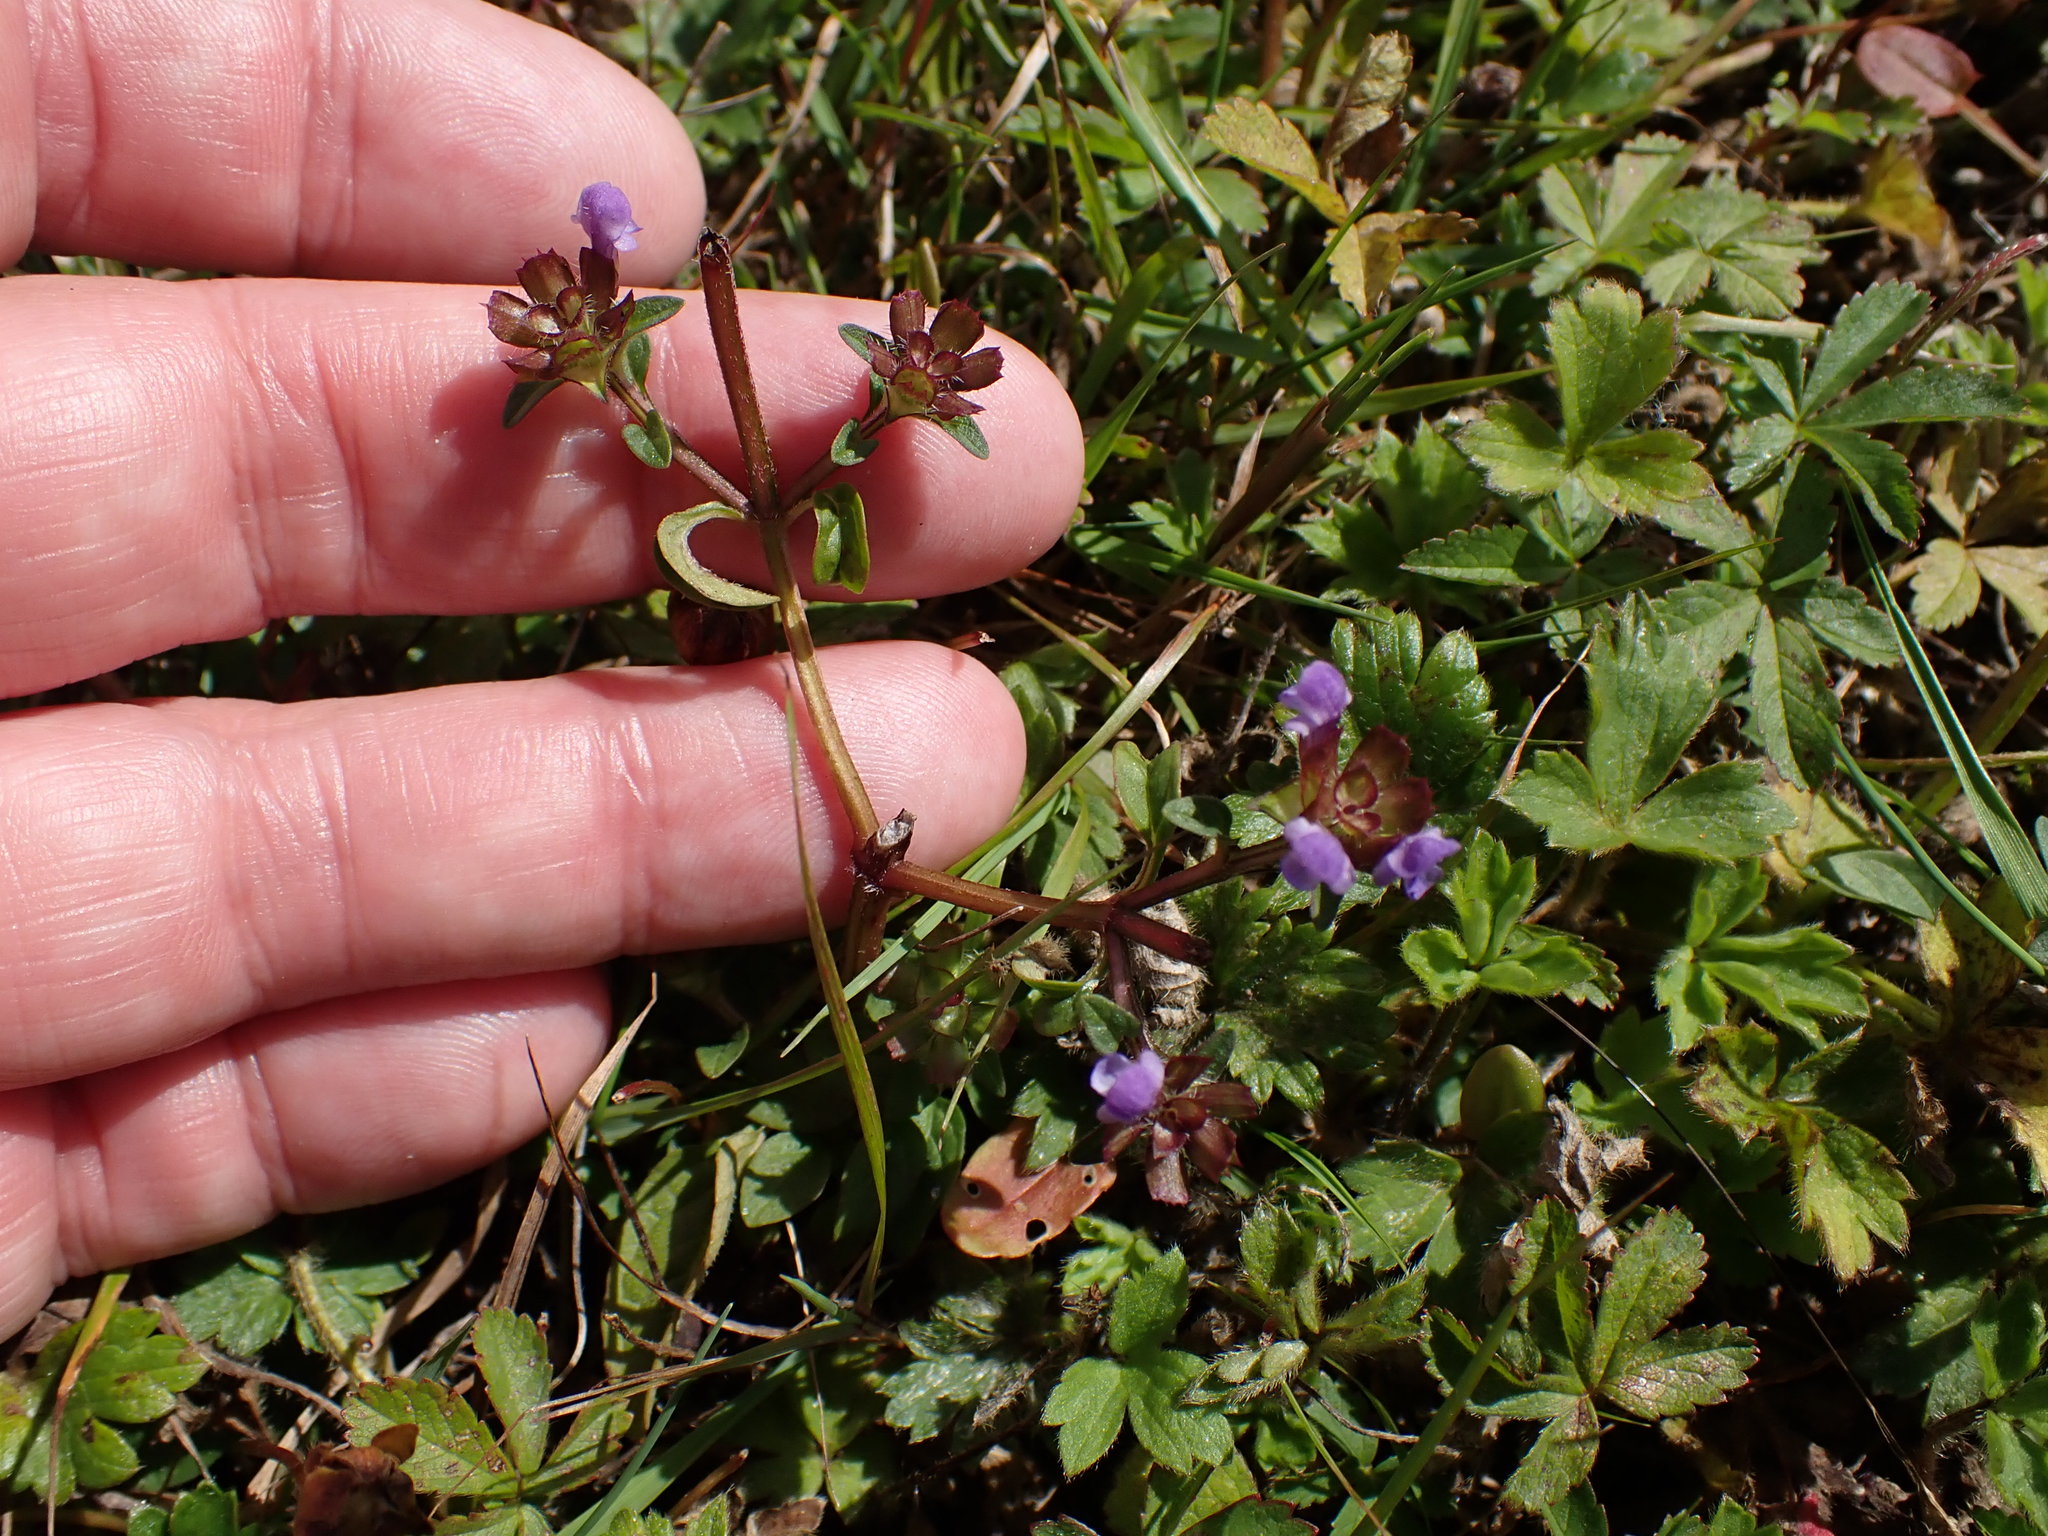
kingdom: Plantae
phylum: Tracheophyta
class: Magnoliopsida
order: Lamiales
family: Lamiaceae
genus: Prunella
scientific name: Prunella vulgaris
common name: Heal-all
